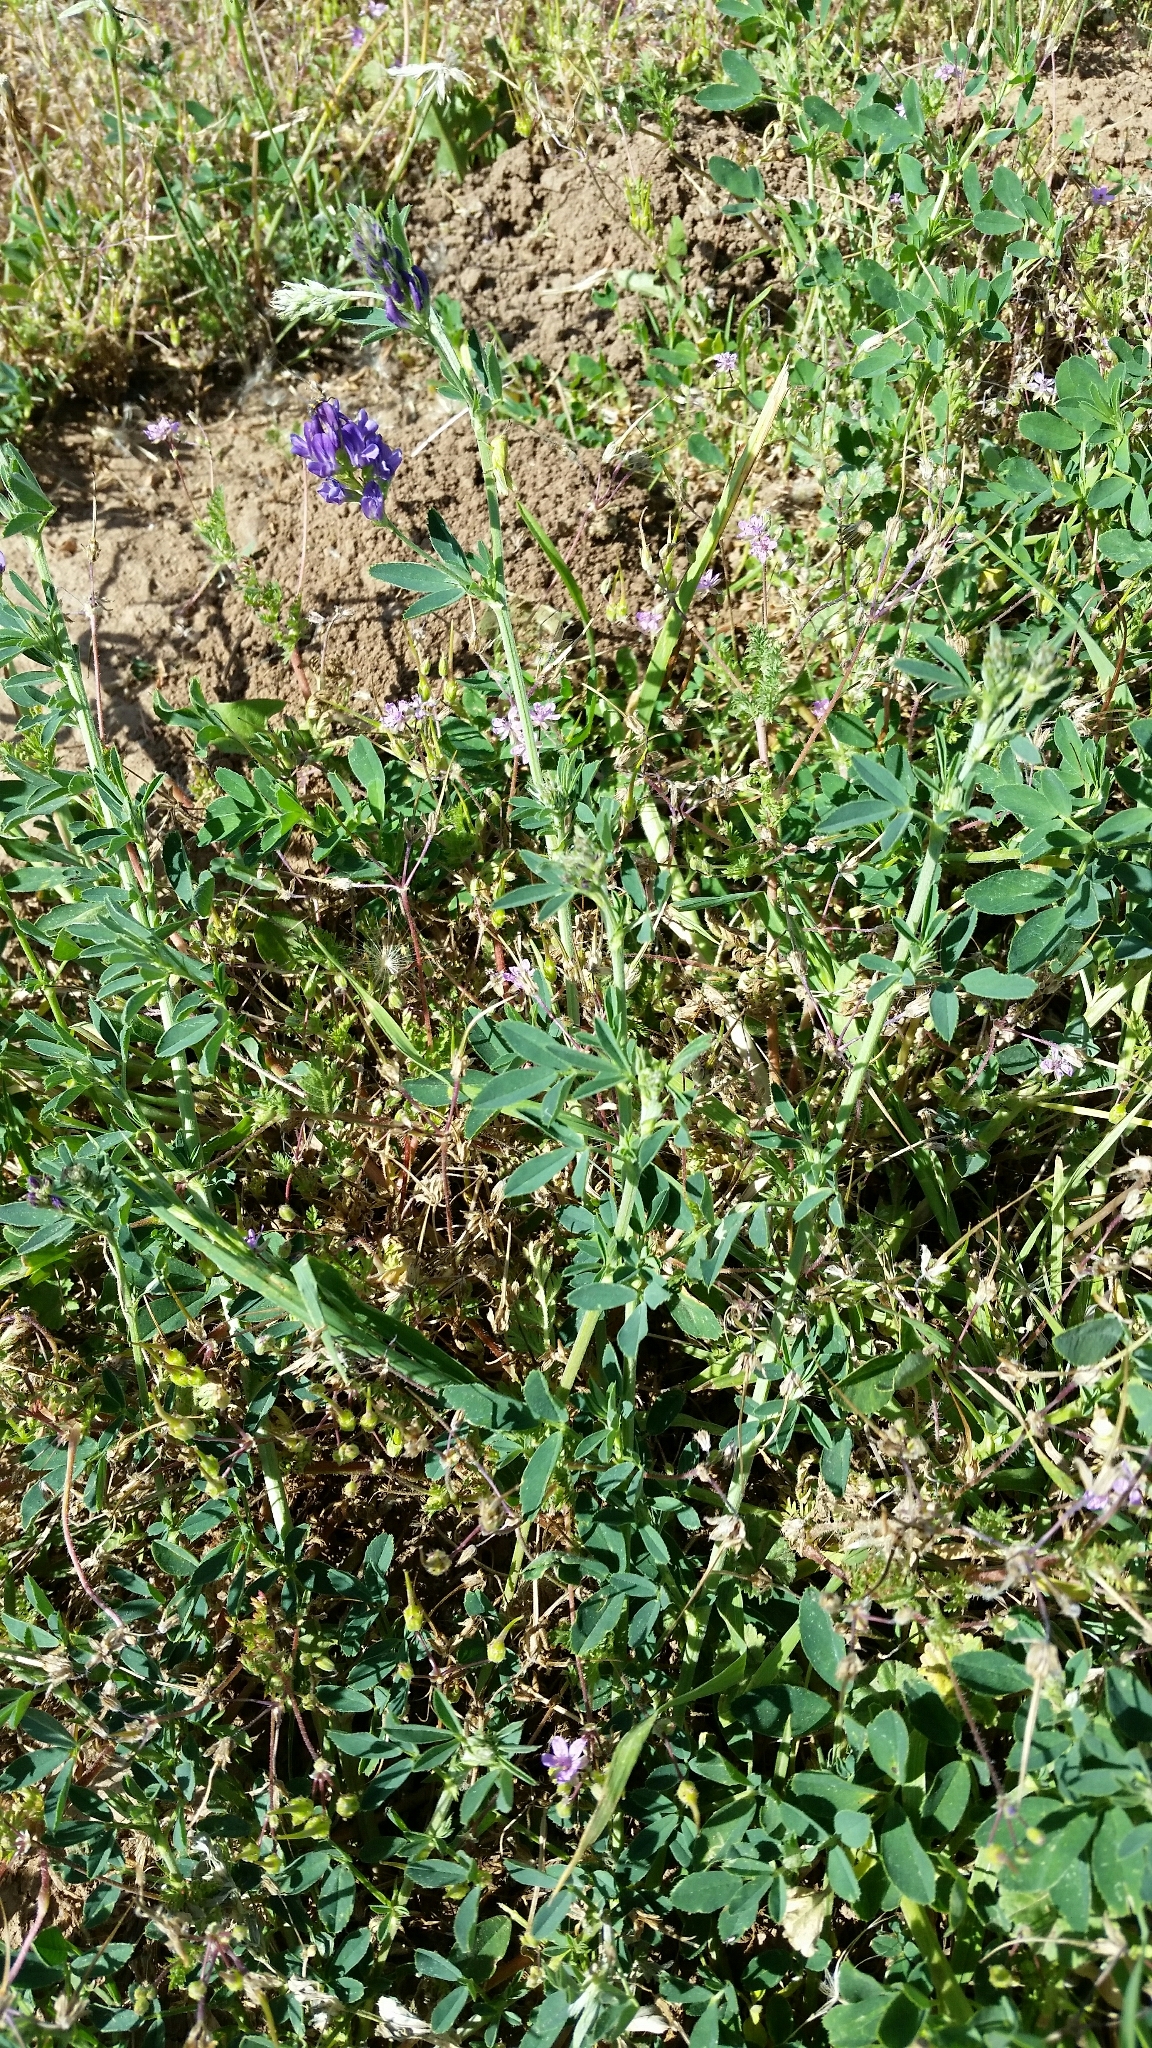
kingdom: Plantae
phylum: Tracheophyta
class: Magnoliopsida
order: Fabales
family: Fabaceae
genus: Medicago
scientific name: Medicago sativa
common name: Alfalfa
